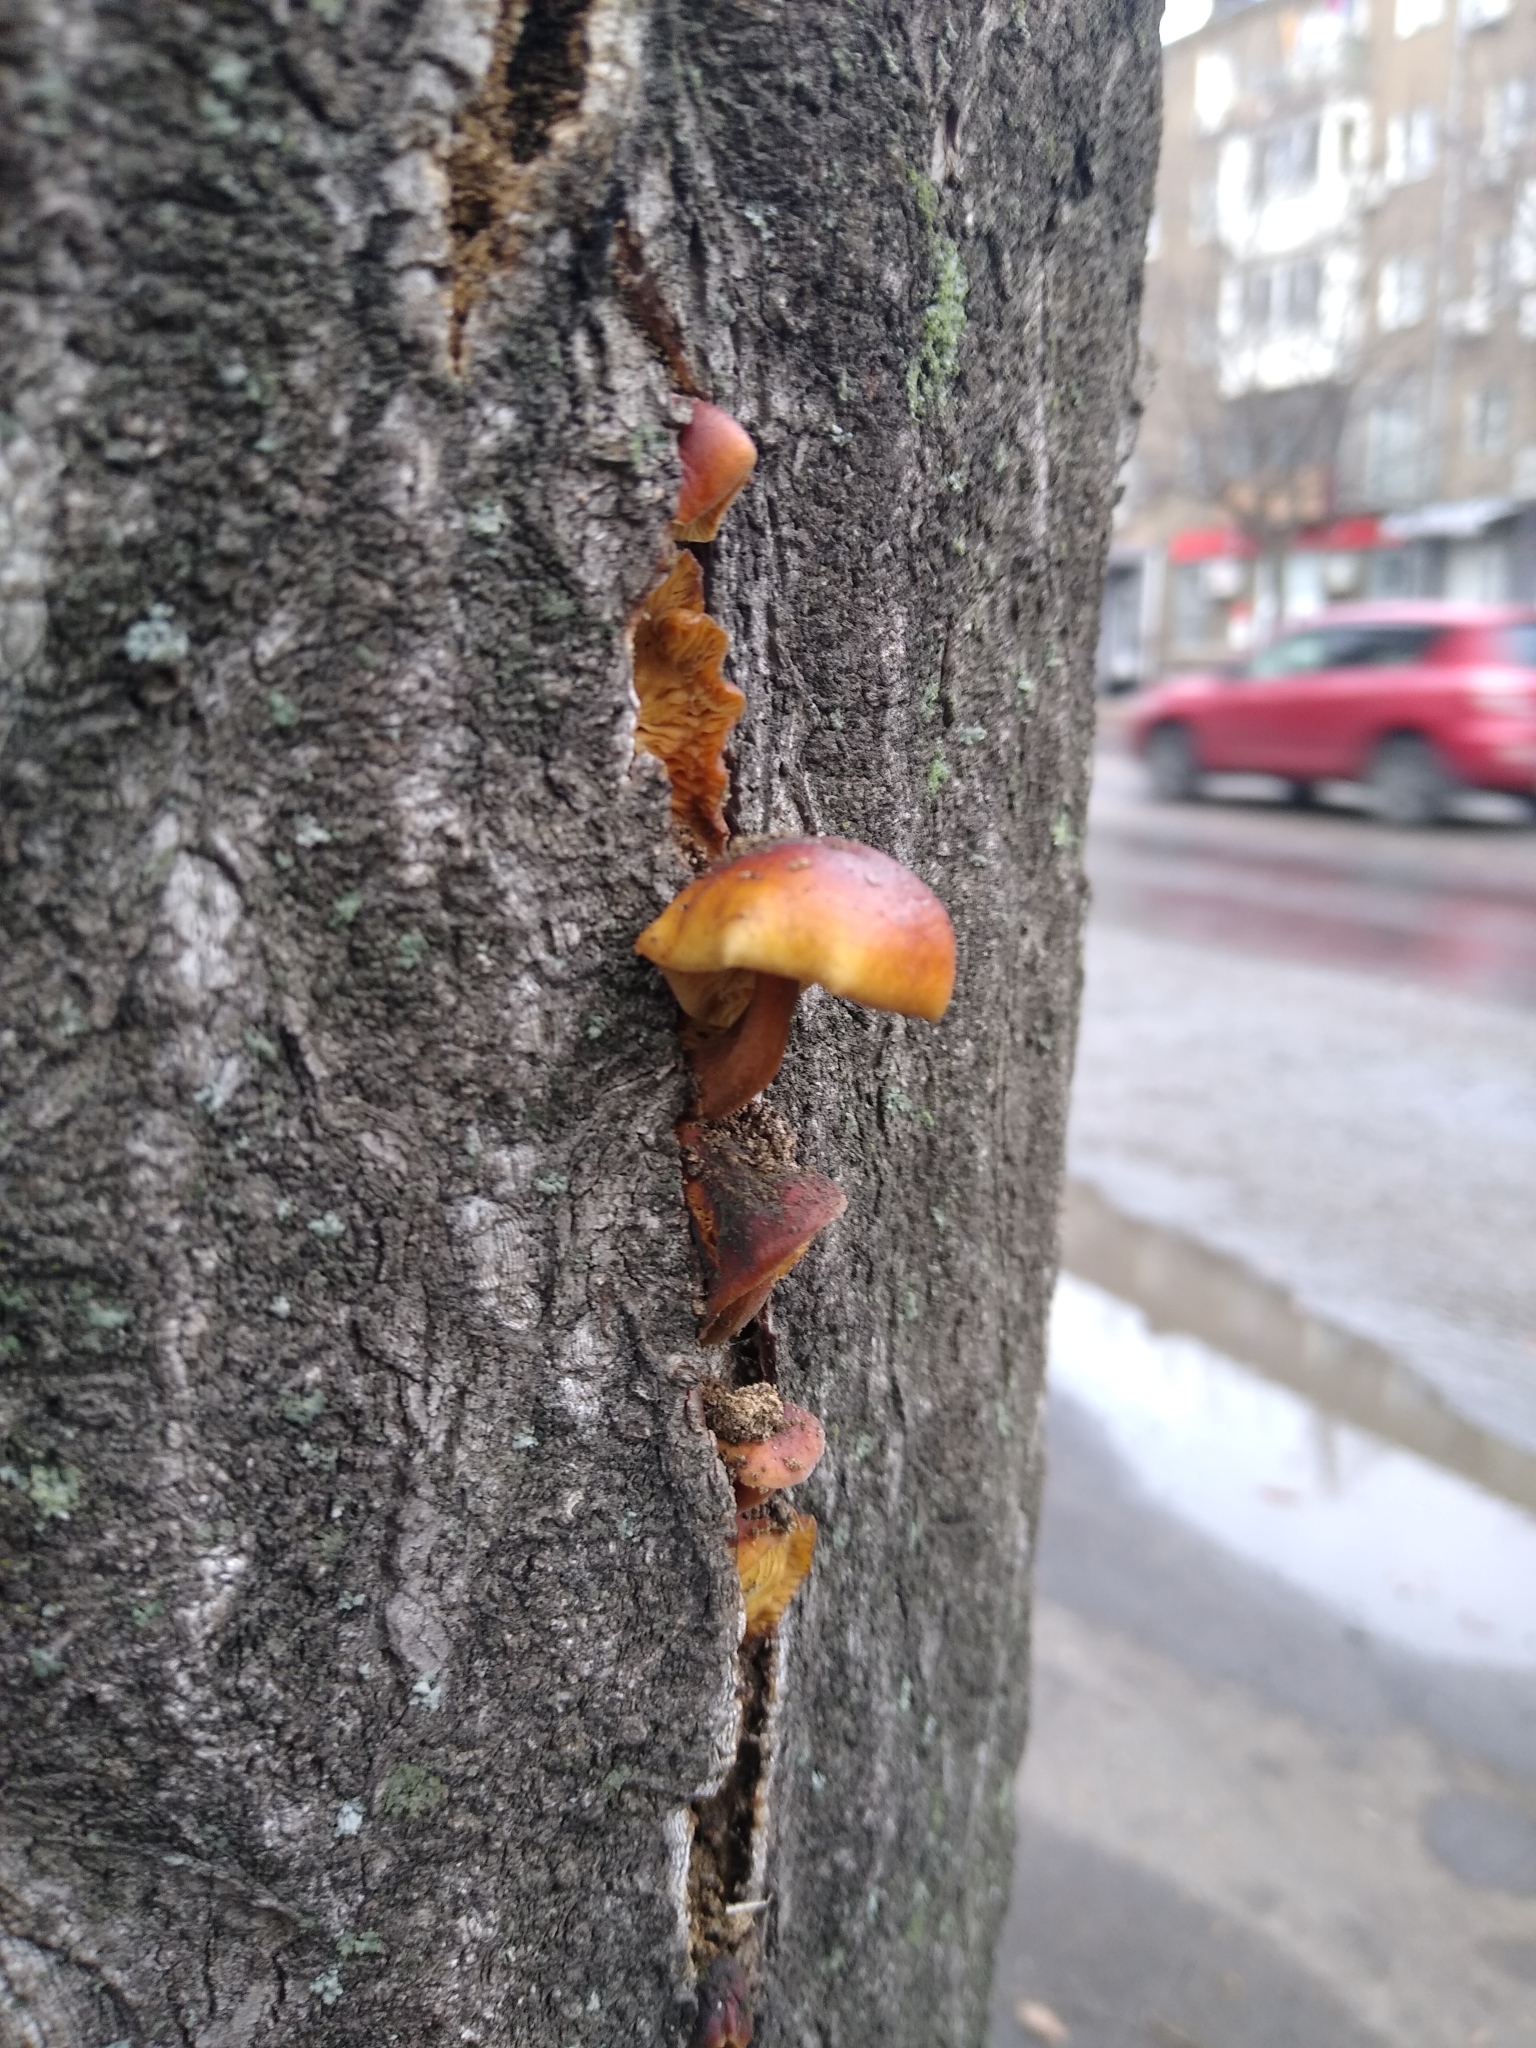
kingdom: Fungi
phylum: Basidiomycota
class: Agaricomycetes
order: Agaricales
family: Physalacriaceae
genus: Flammulina
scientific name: Flammulina
